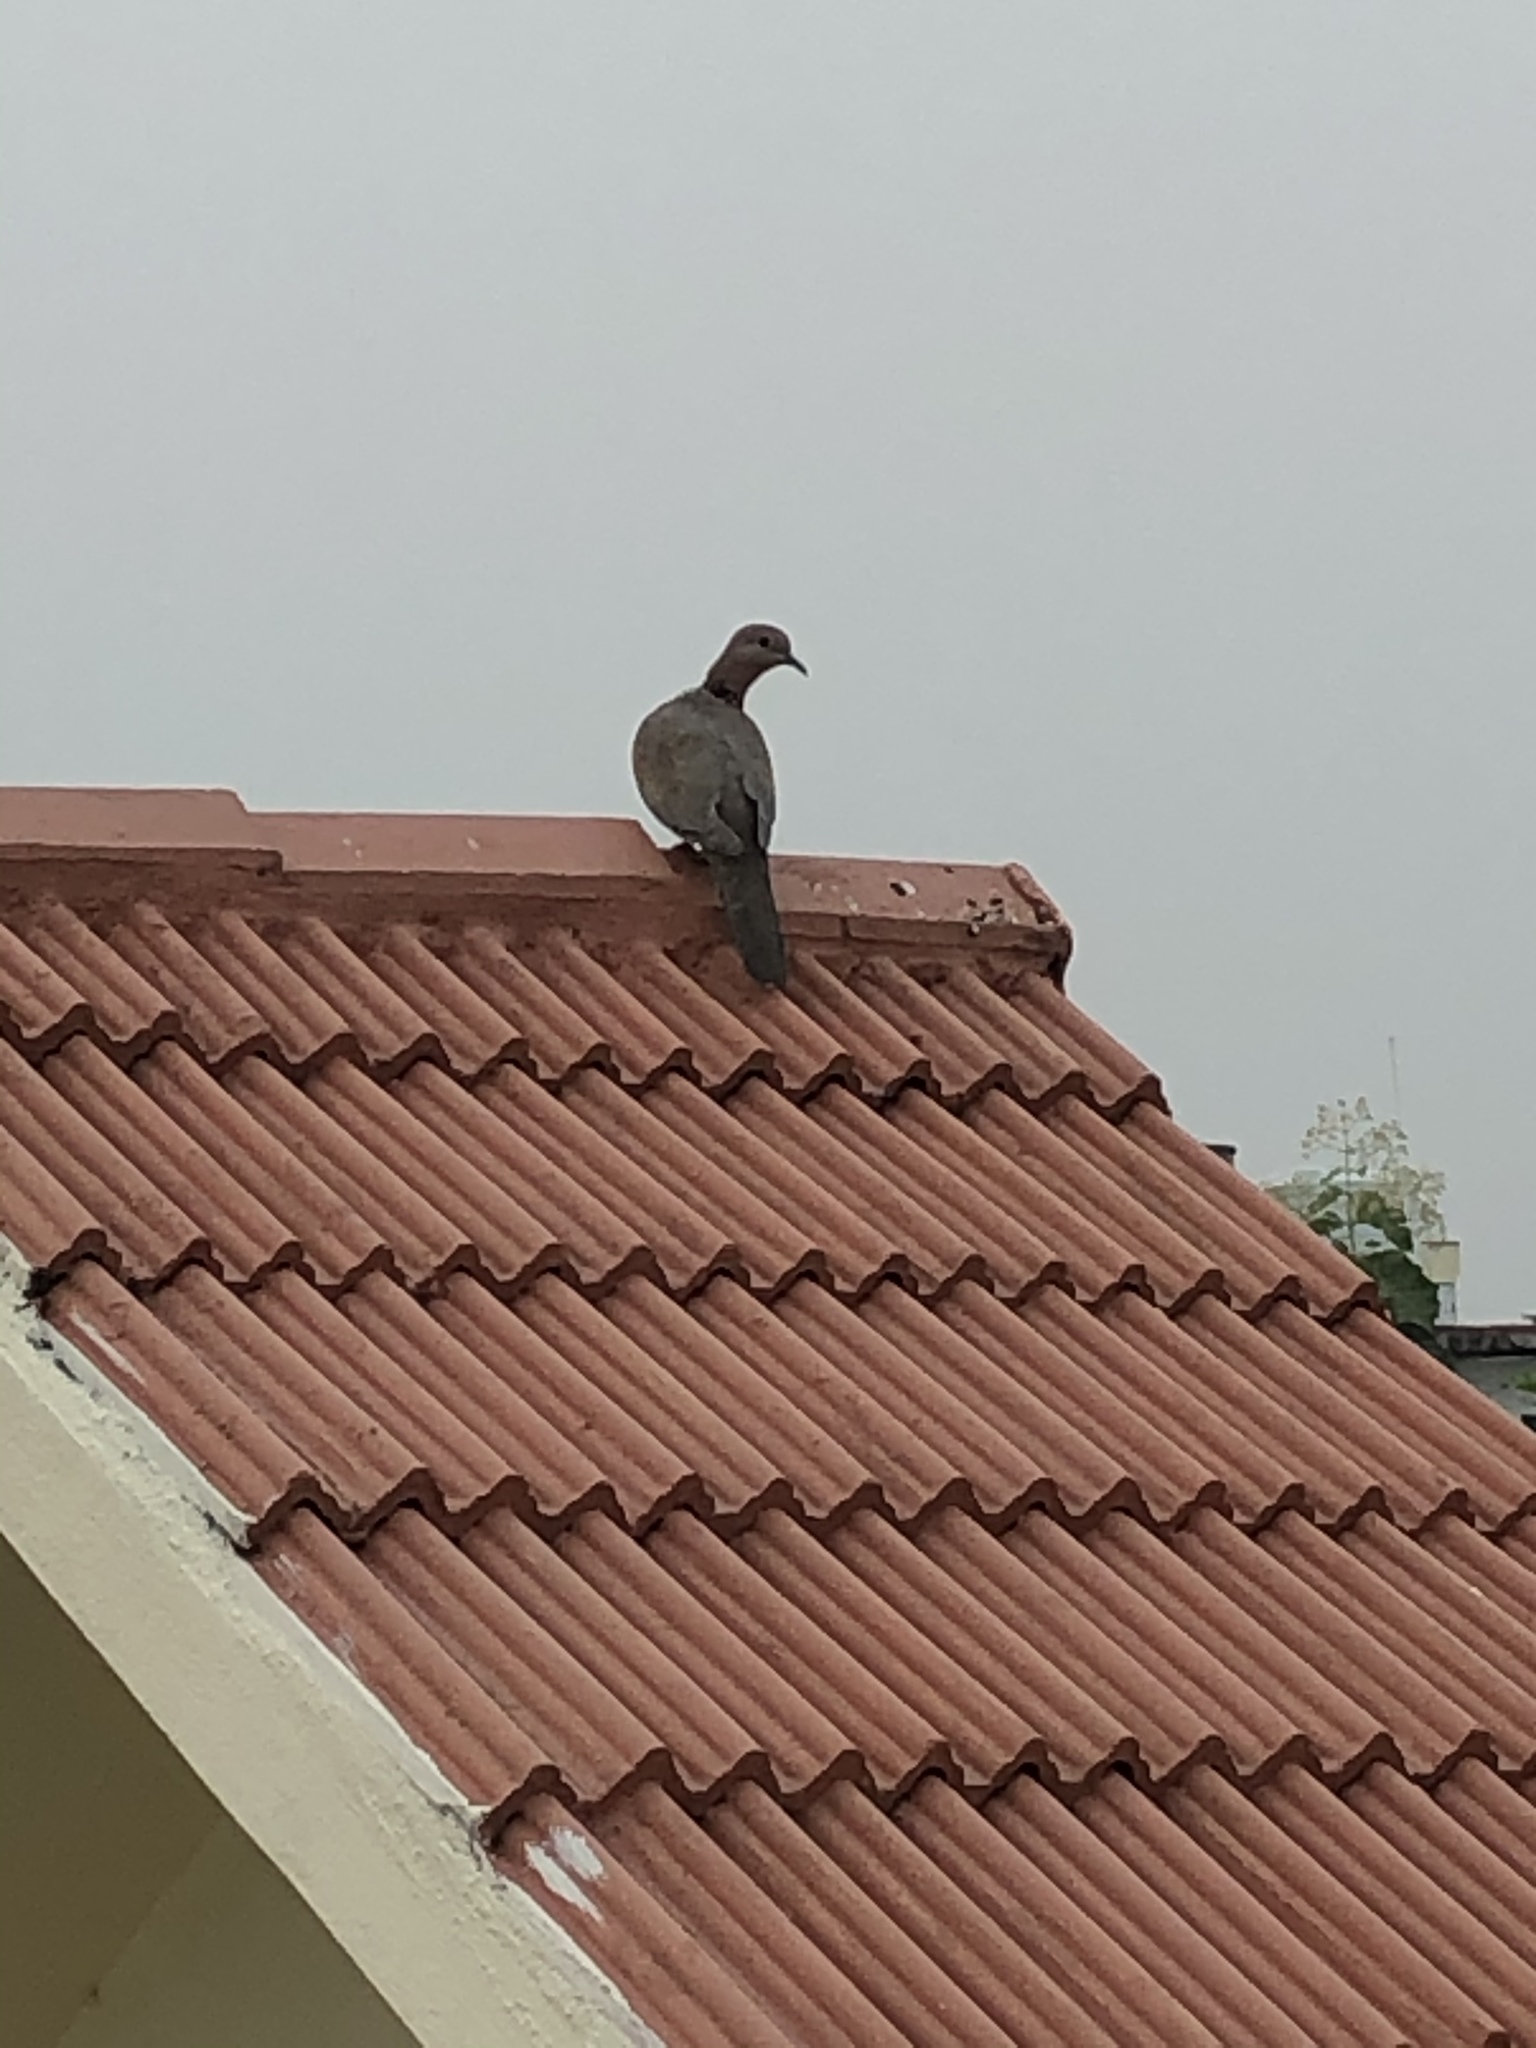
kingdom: Animalia
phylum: Chordata
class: Aves
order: Columbiformes
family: Columbidae
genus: Streptopelia
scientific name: Streptopelia decaocto
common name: Eurasian collared dove
